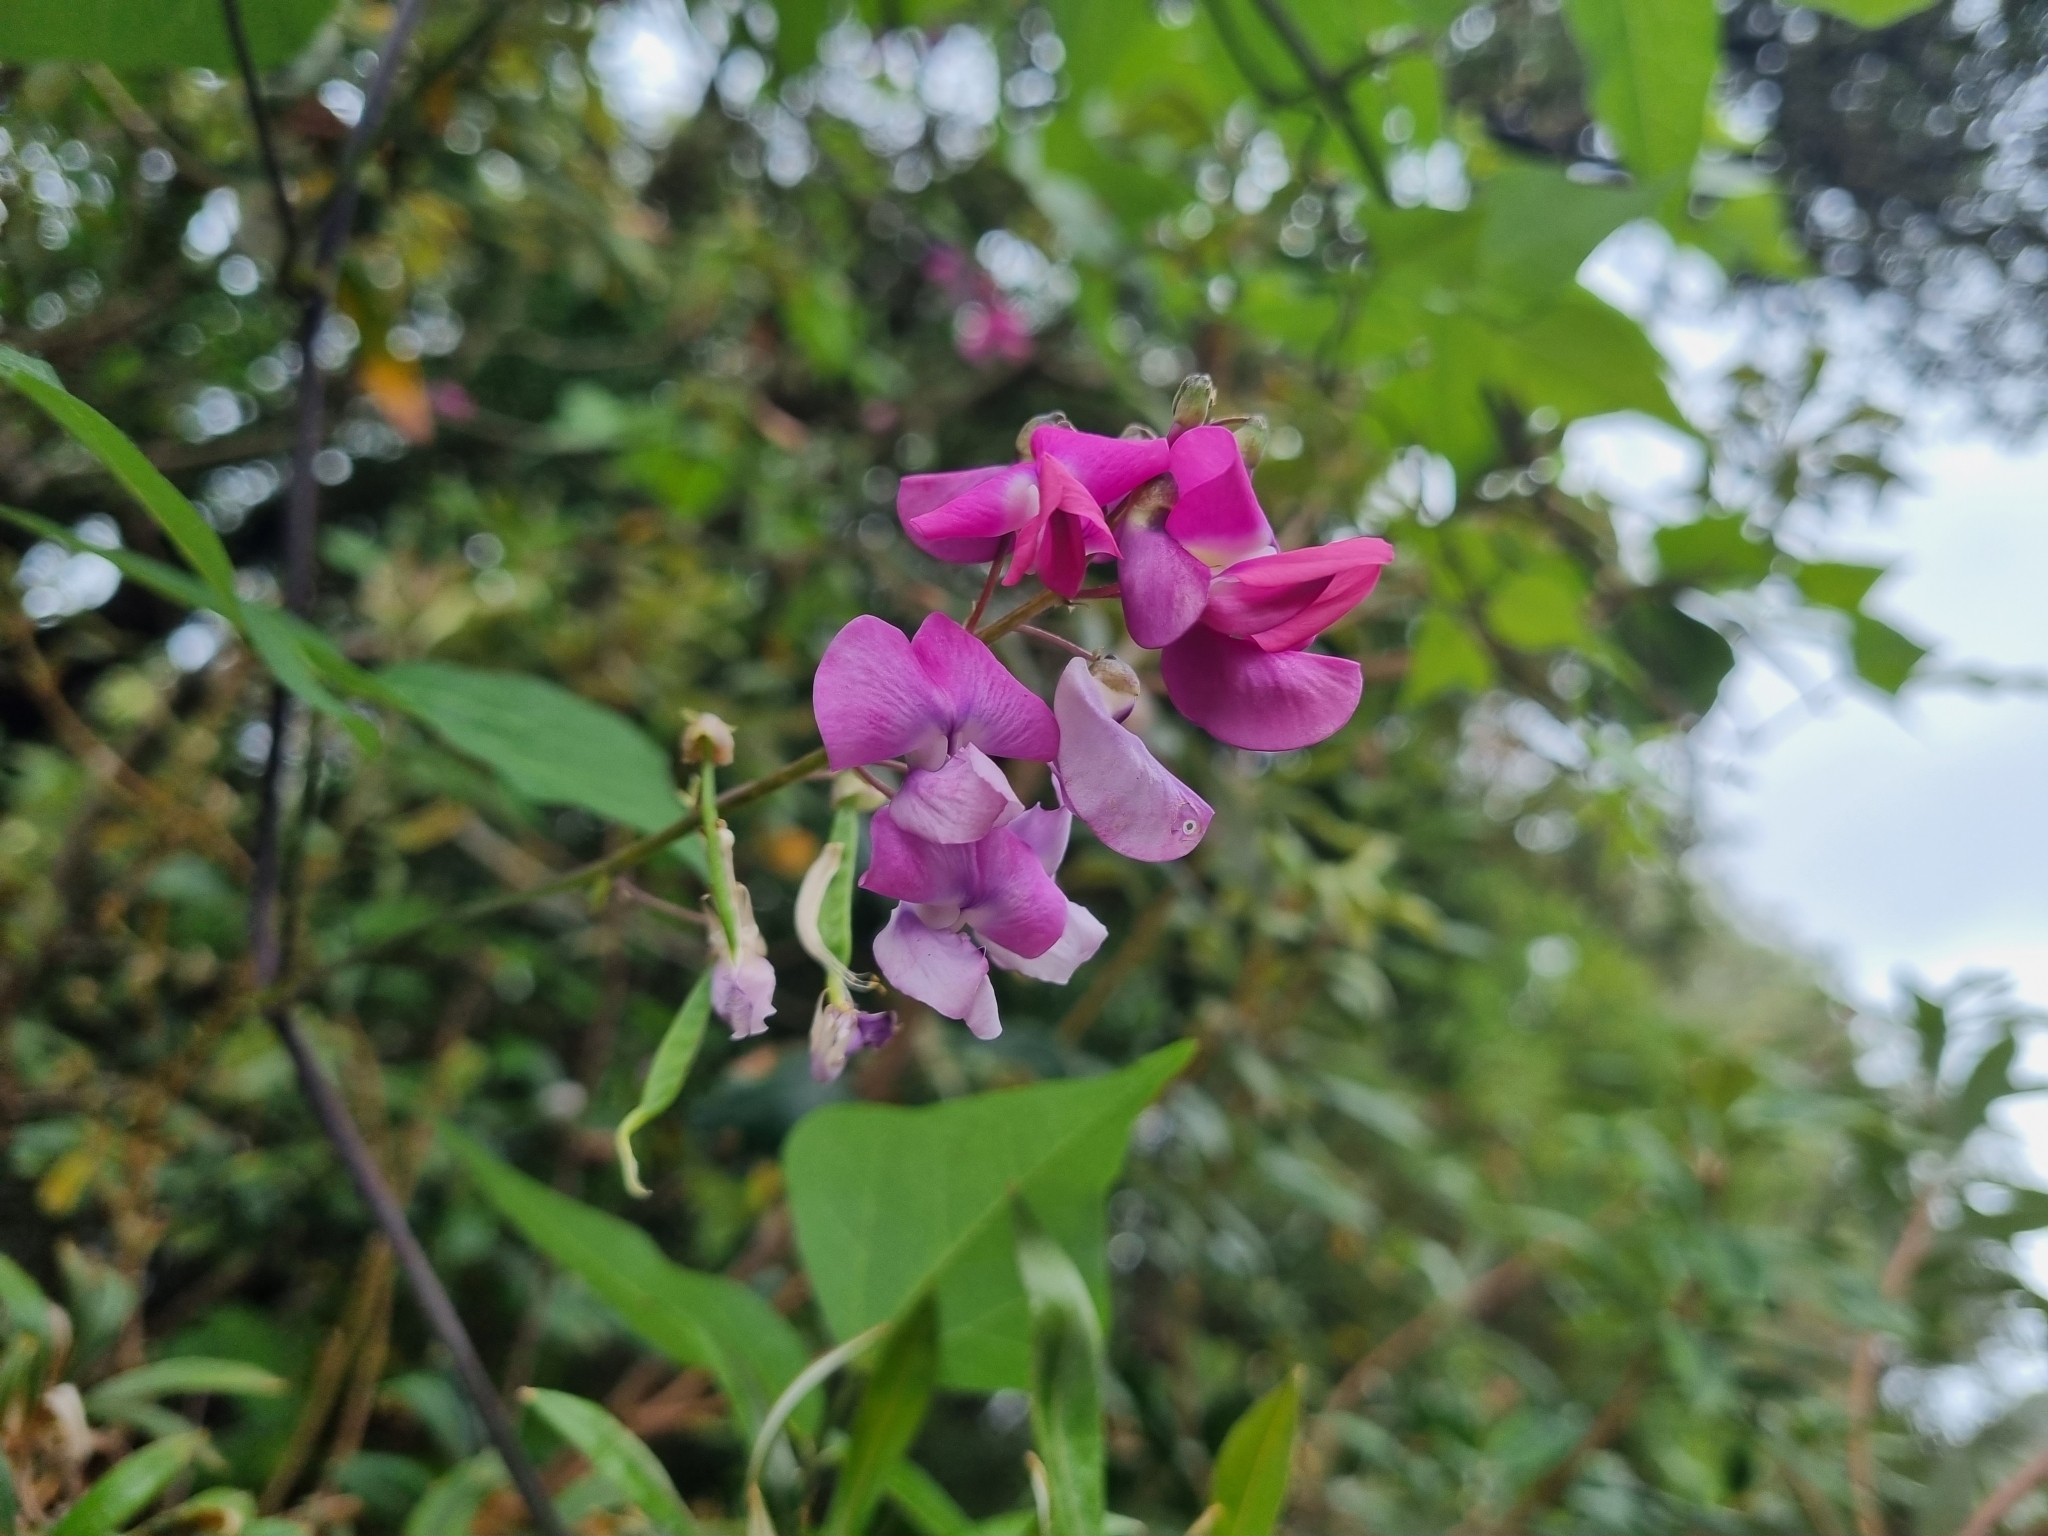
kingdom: Plantae
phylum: Tracheophyta
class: Magnoliopsida
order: Fabales
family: Fabaceae
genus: Dipogon
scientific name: Dipogon lignosus
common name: Okie bean
